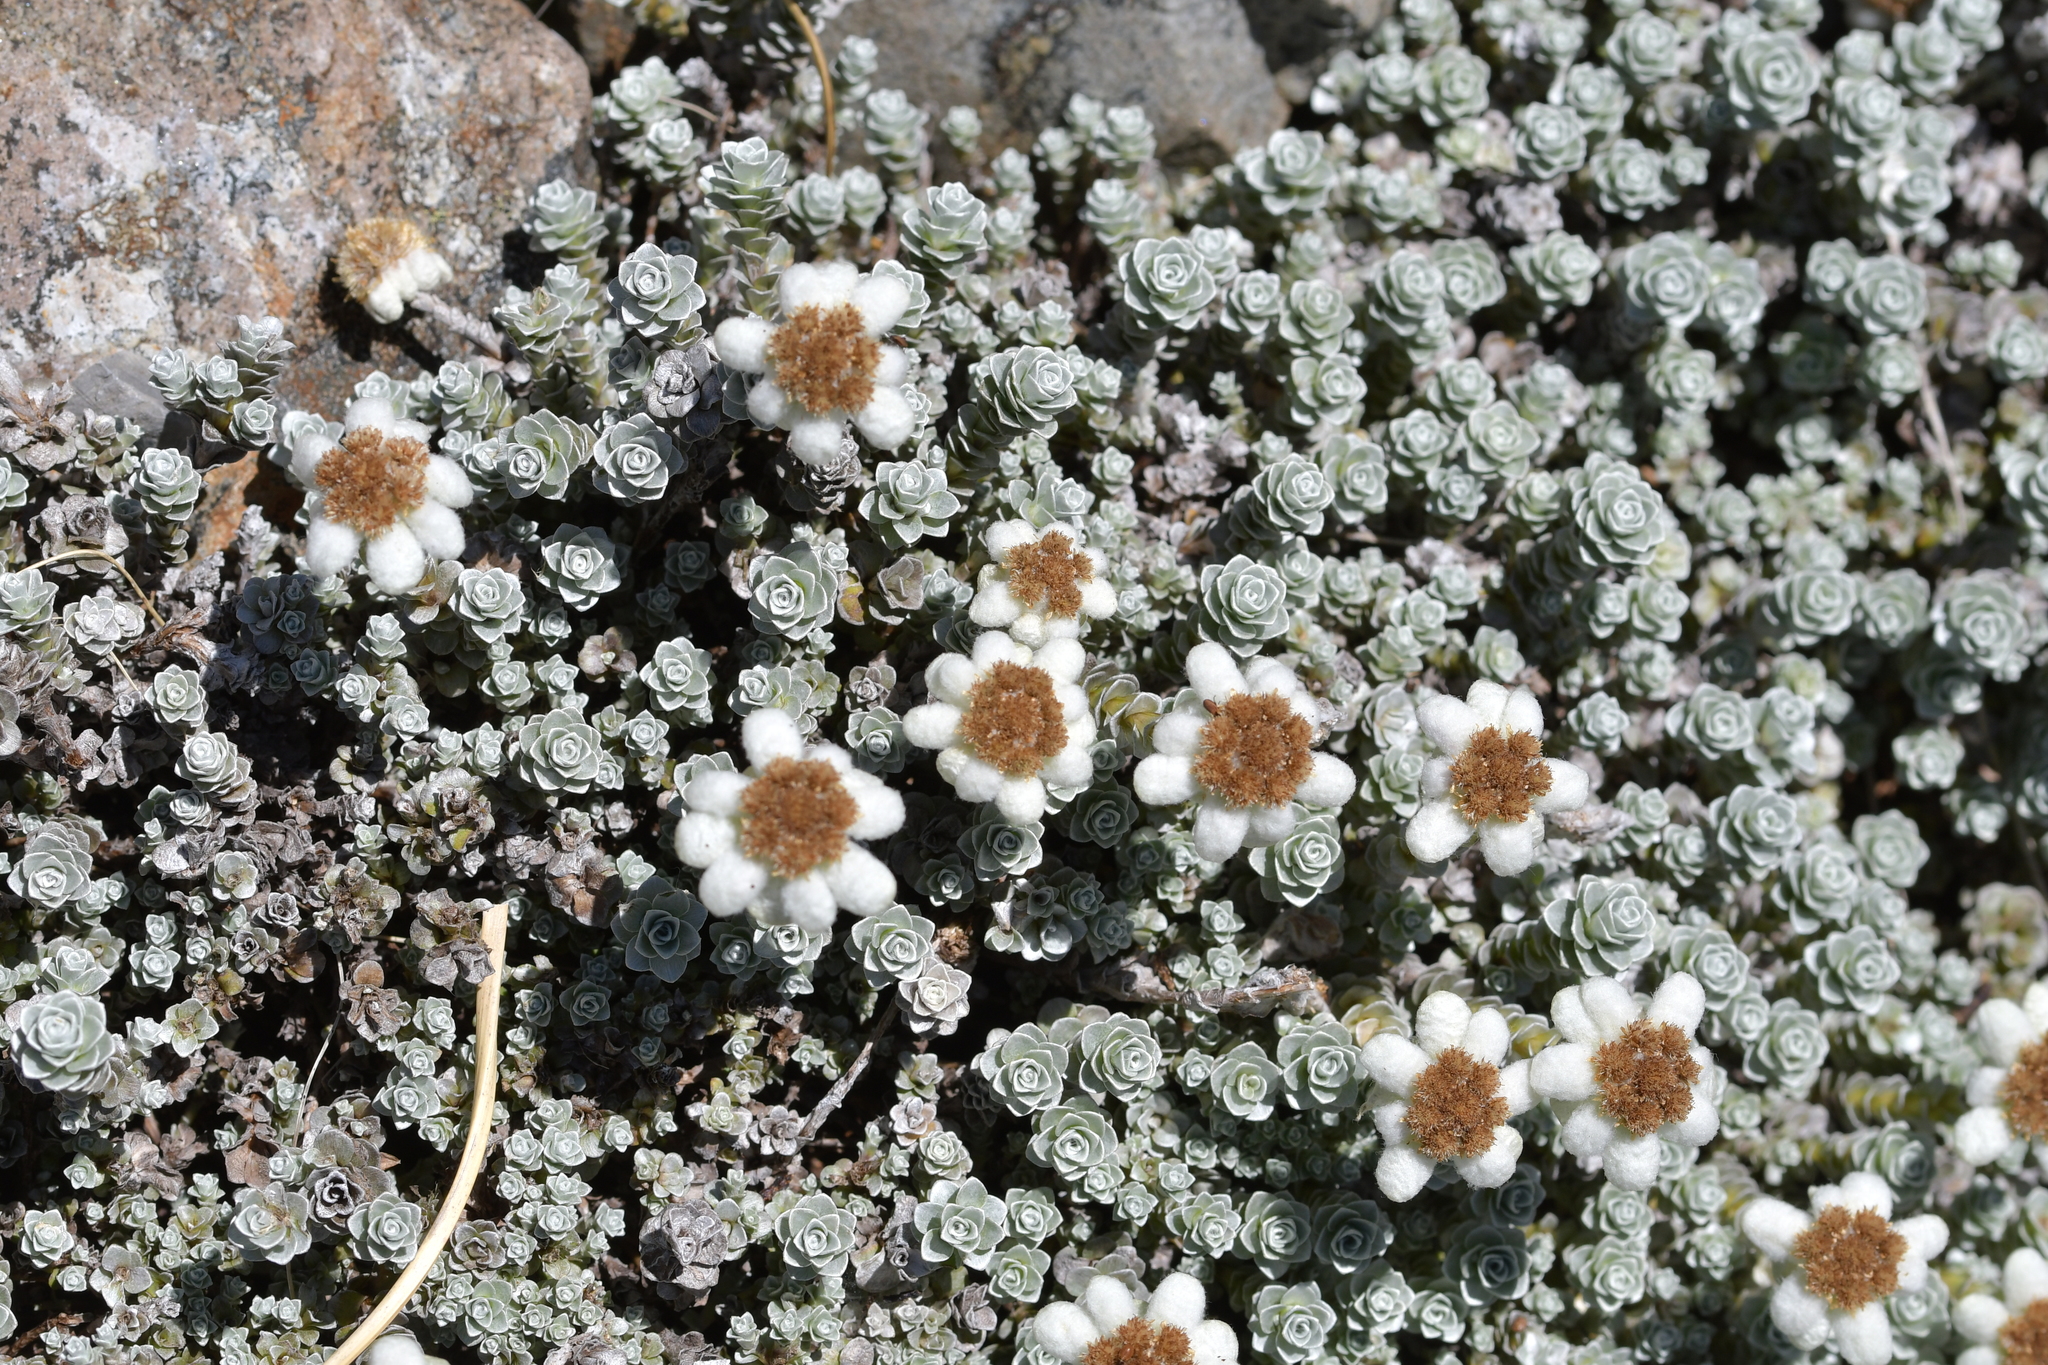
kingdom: Plantae
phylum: Tracheophyta
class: Magnoliopsida
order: Asterales
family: Asteraceae
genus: Leucogenes
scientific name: Leucogenes grandiceps
